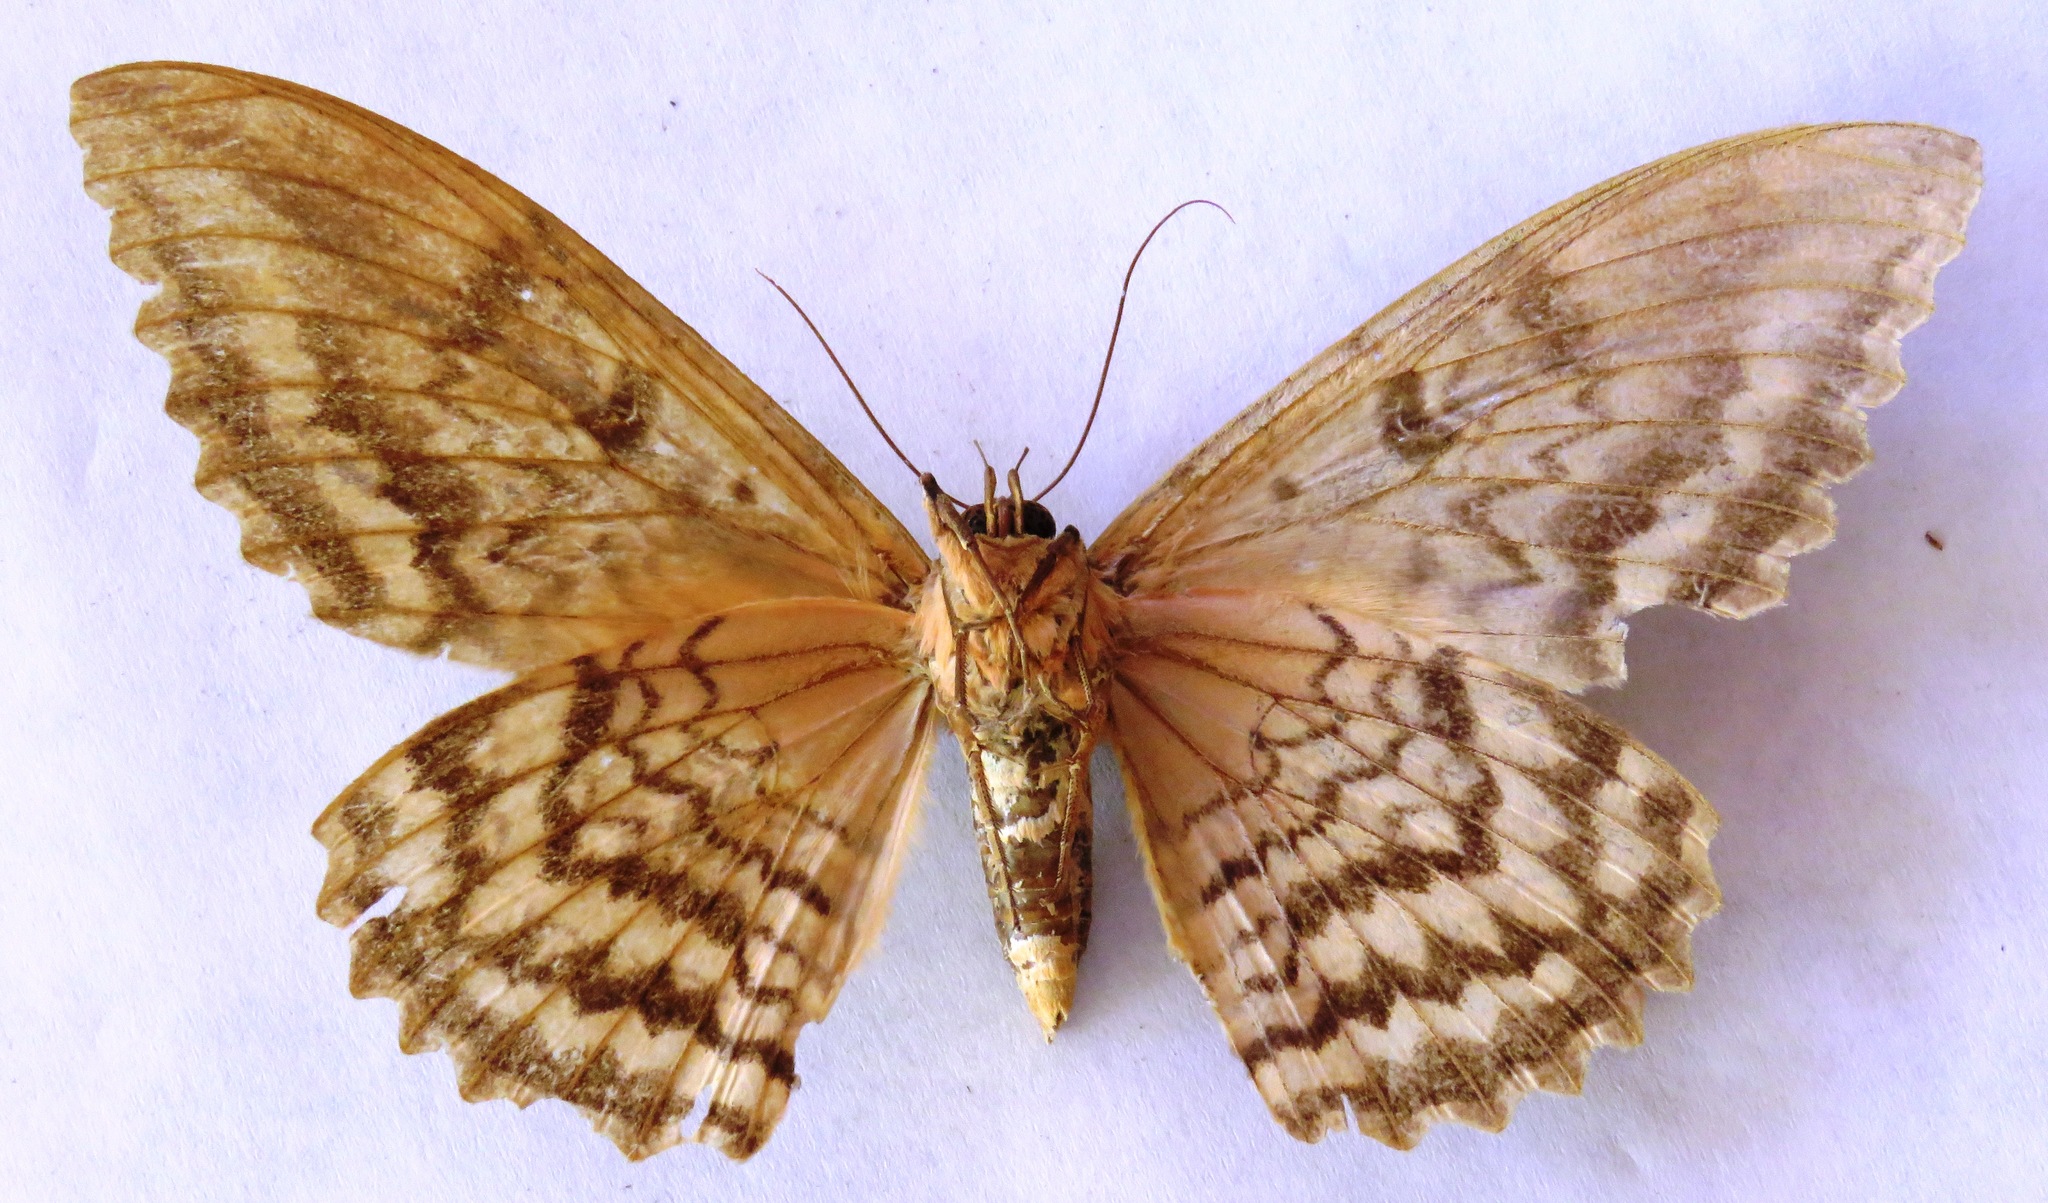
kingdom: Animalia
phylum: Arthropoda
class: Insecta
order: Lepidoptera
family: Erebidae
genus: Thysania
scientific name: Thysania zenobia
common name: Owl moth
